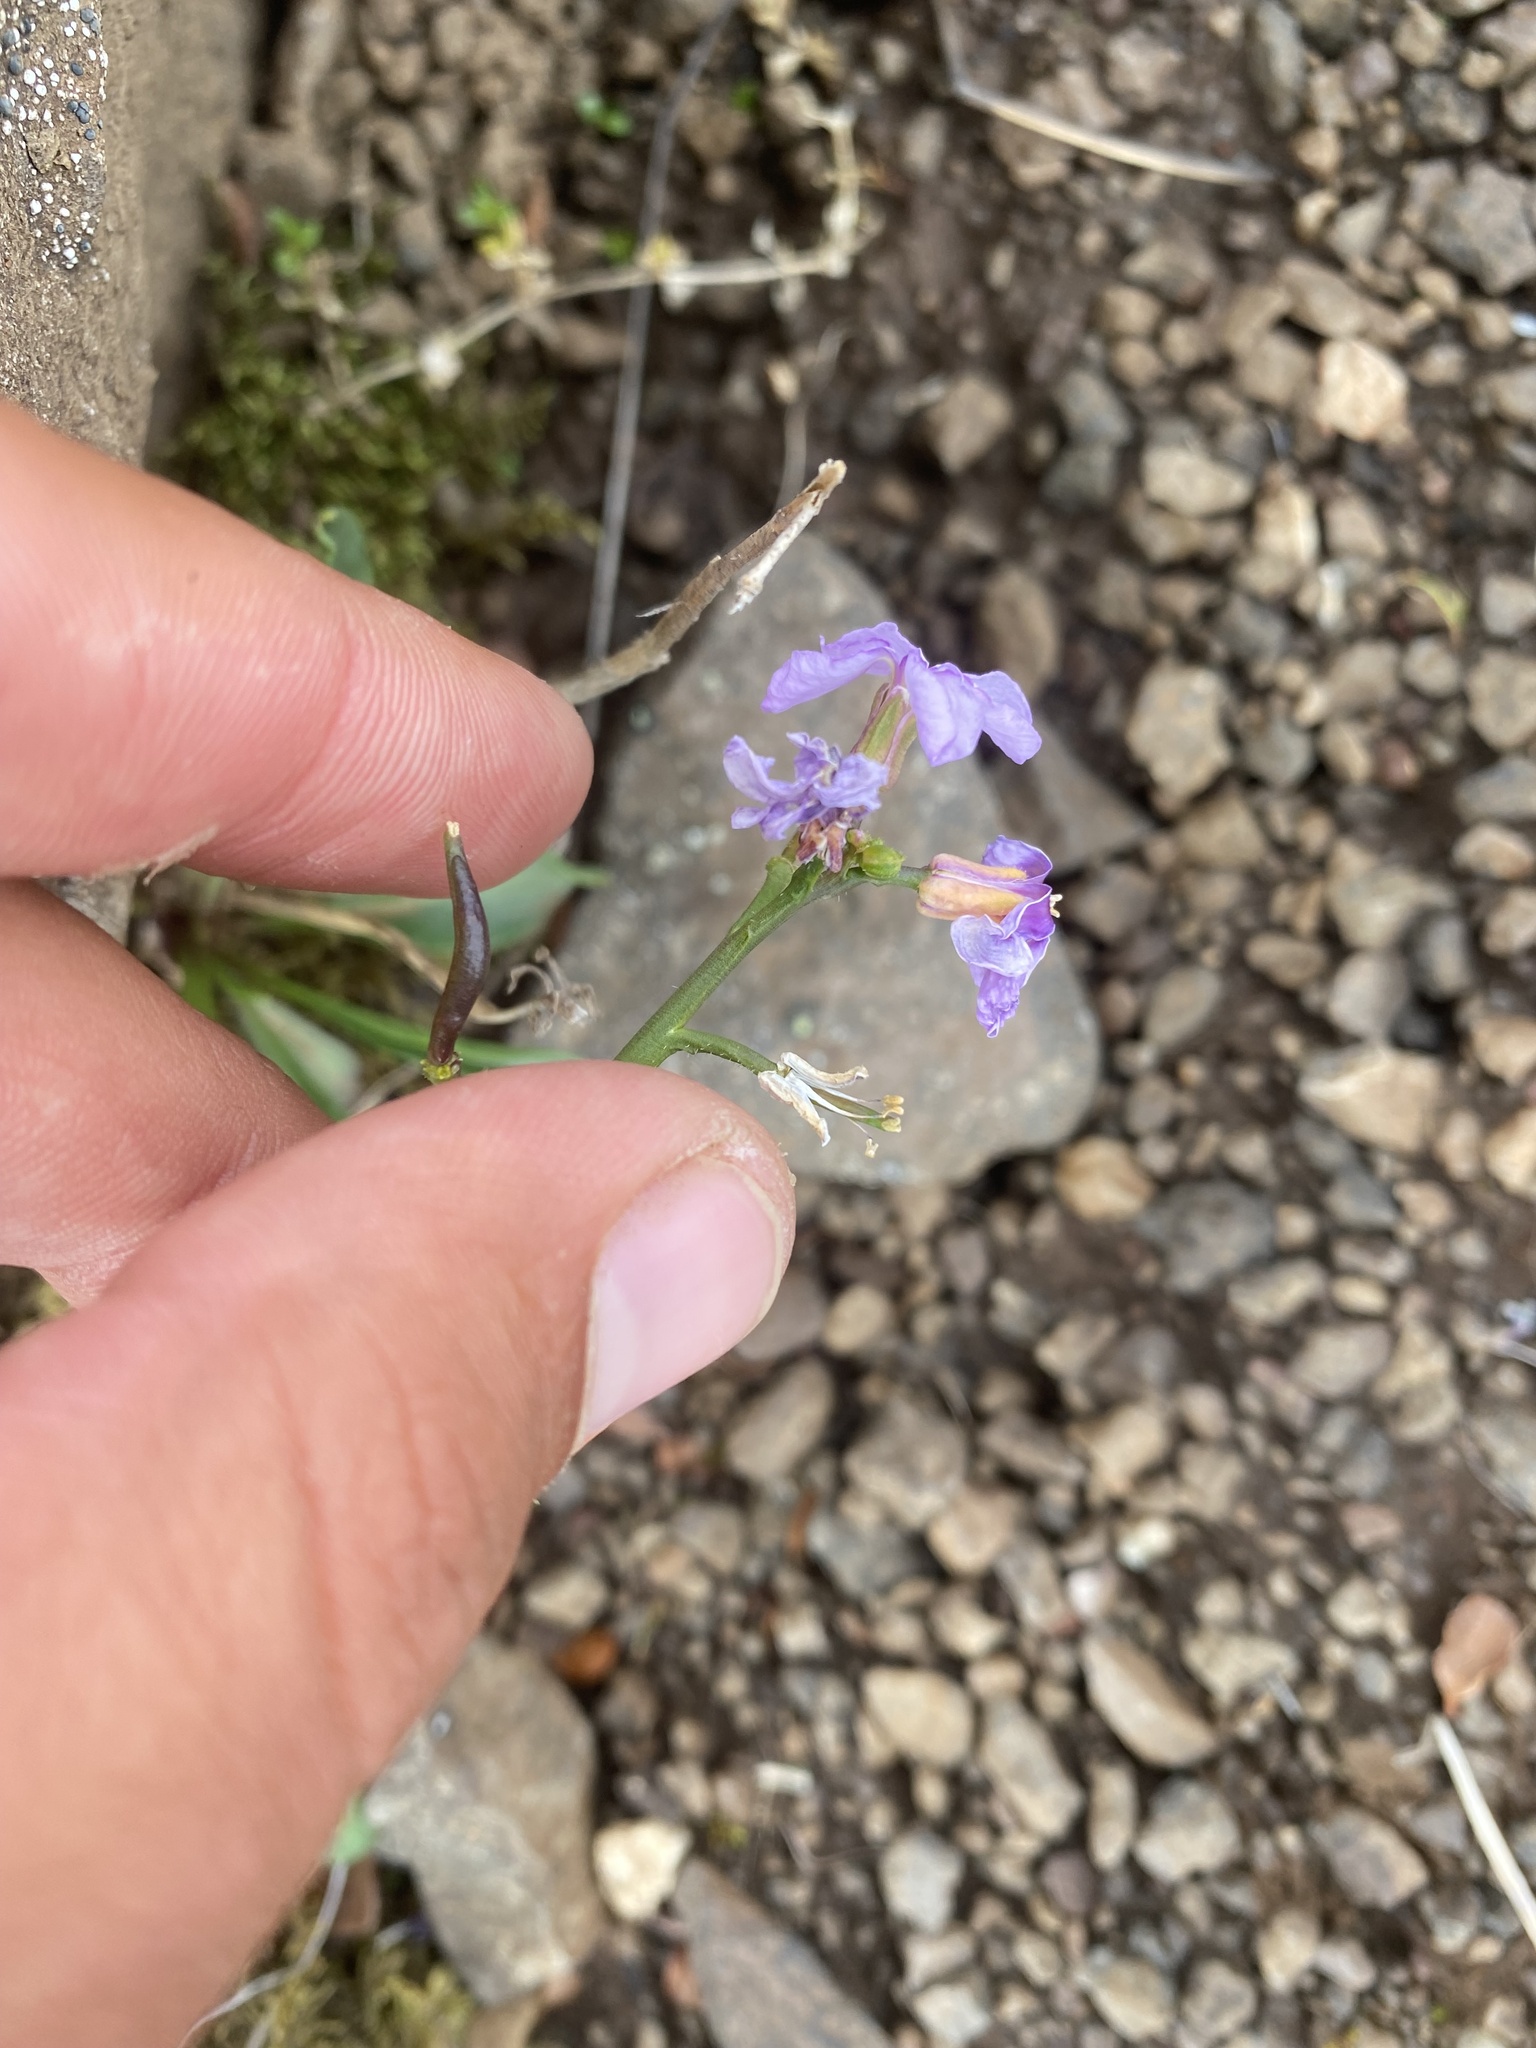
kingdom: Plantae
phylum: Tracheophyta
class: Magnoliopsida
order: Brassicales
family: Brassicaceae
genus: Parrya
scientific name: Parrya nudicaulis
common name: Naked-stemmed false wallflower
